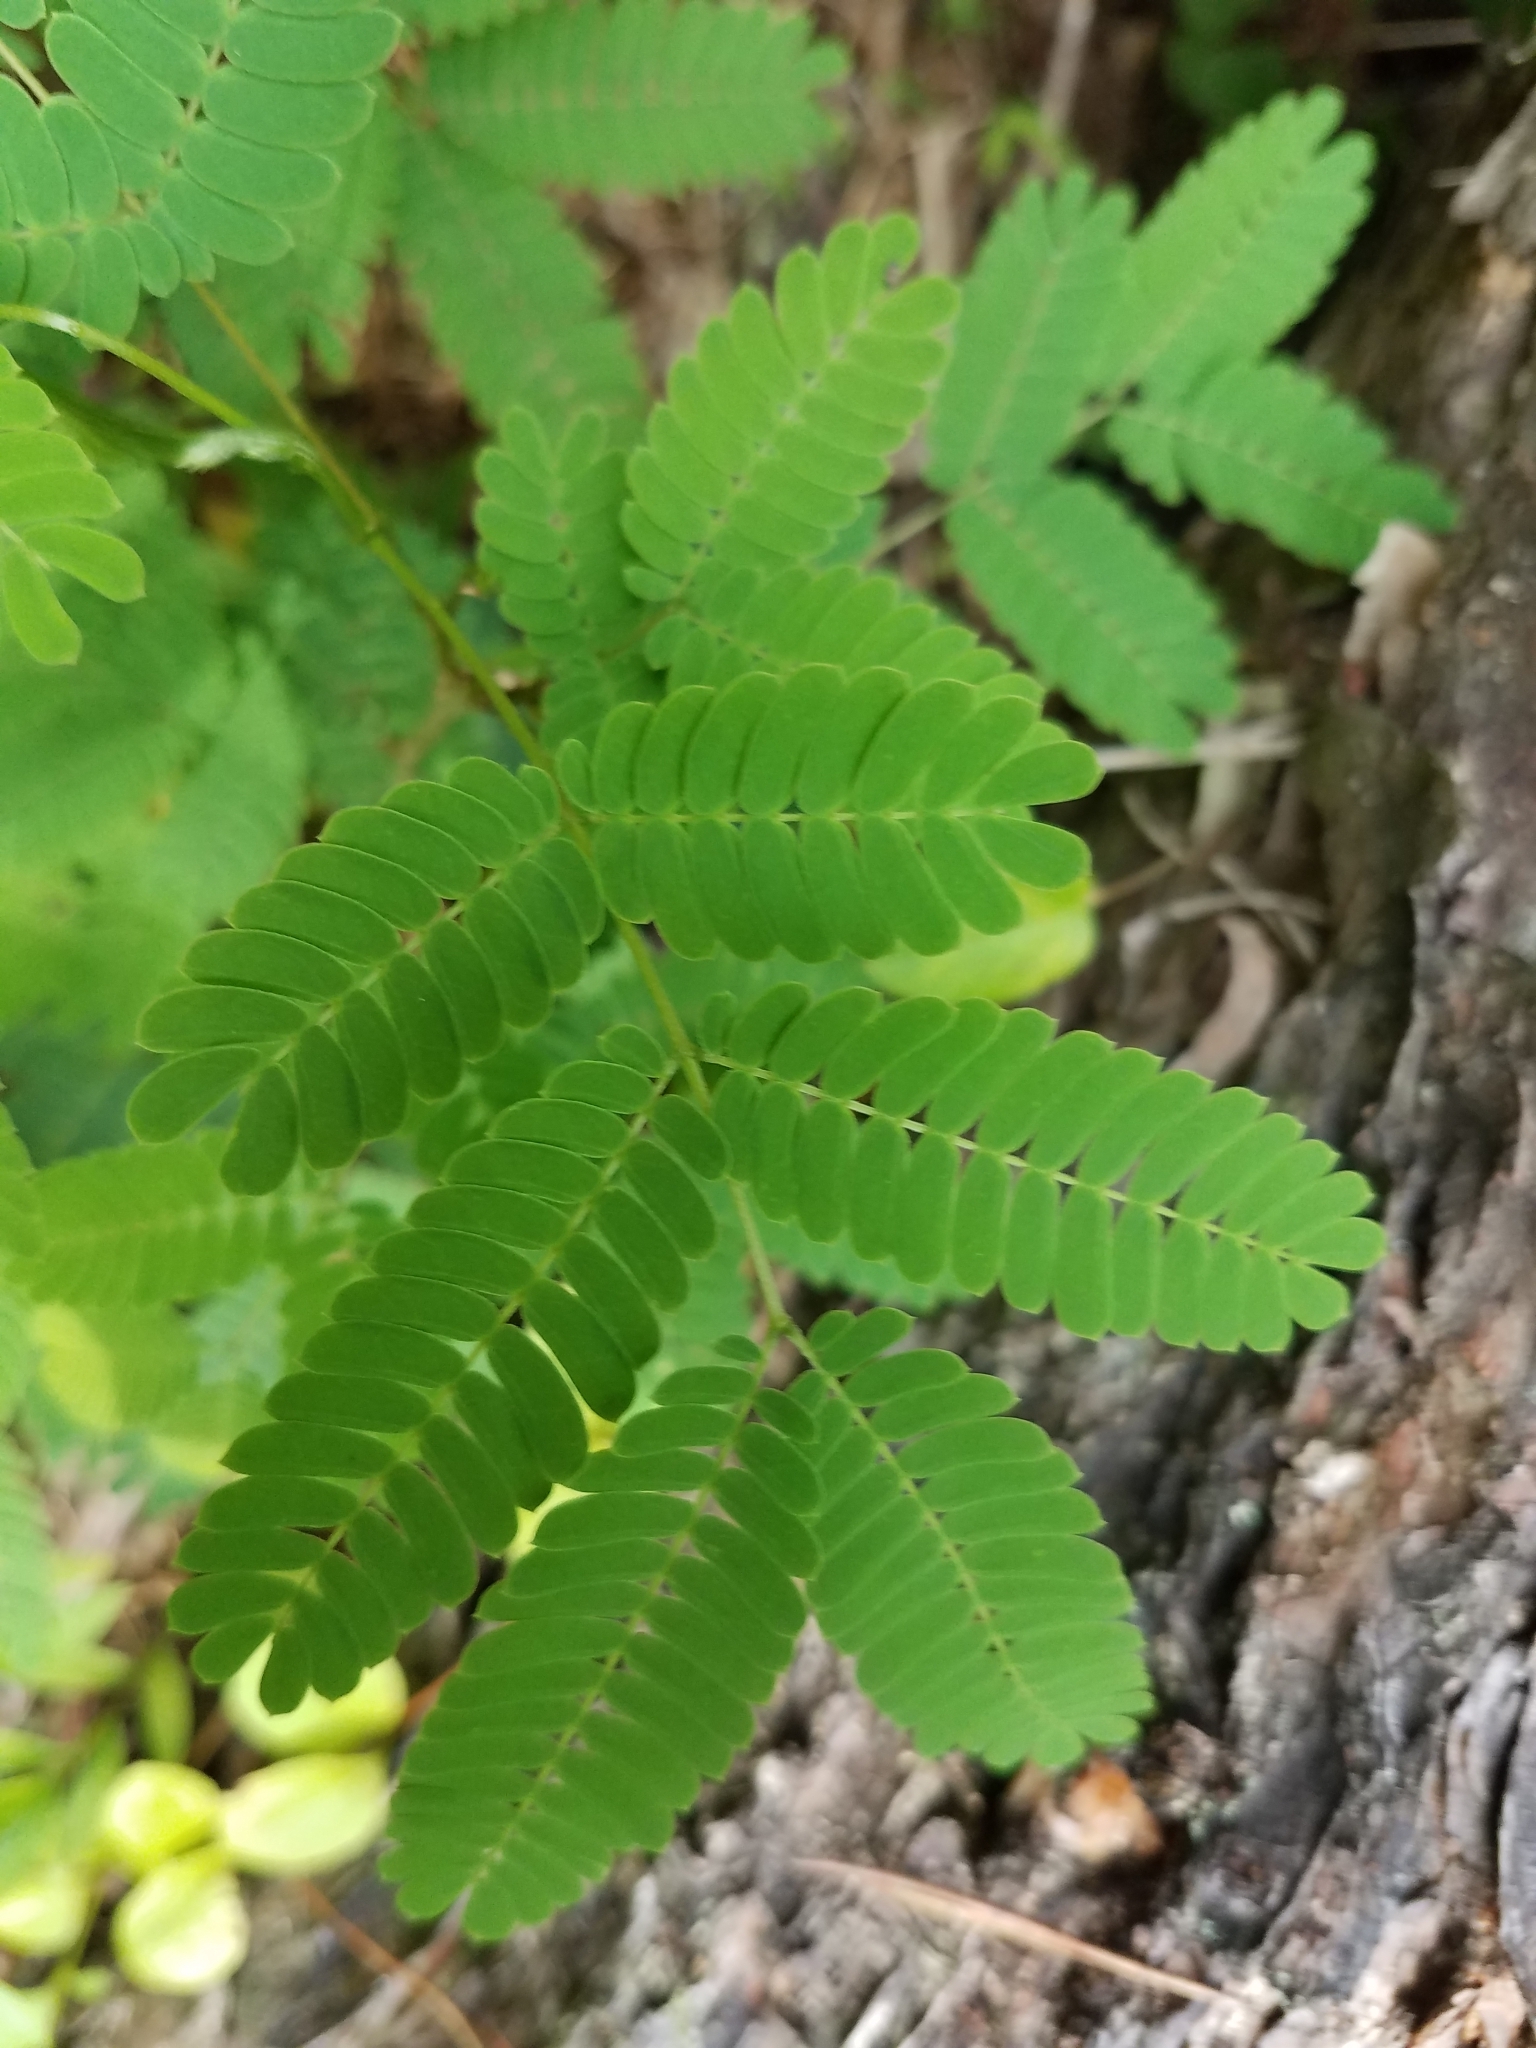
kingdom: Plantae
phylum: Tracheophyta
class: Magnoliopsida
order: Fabales
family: Fabaceae
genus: Albizia
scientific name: Albizia julibrissin
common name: Silktree
